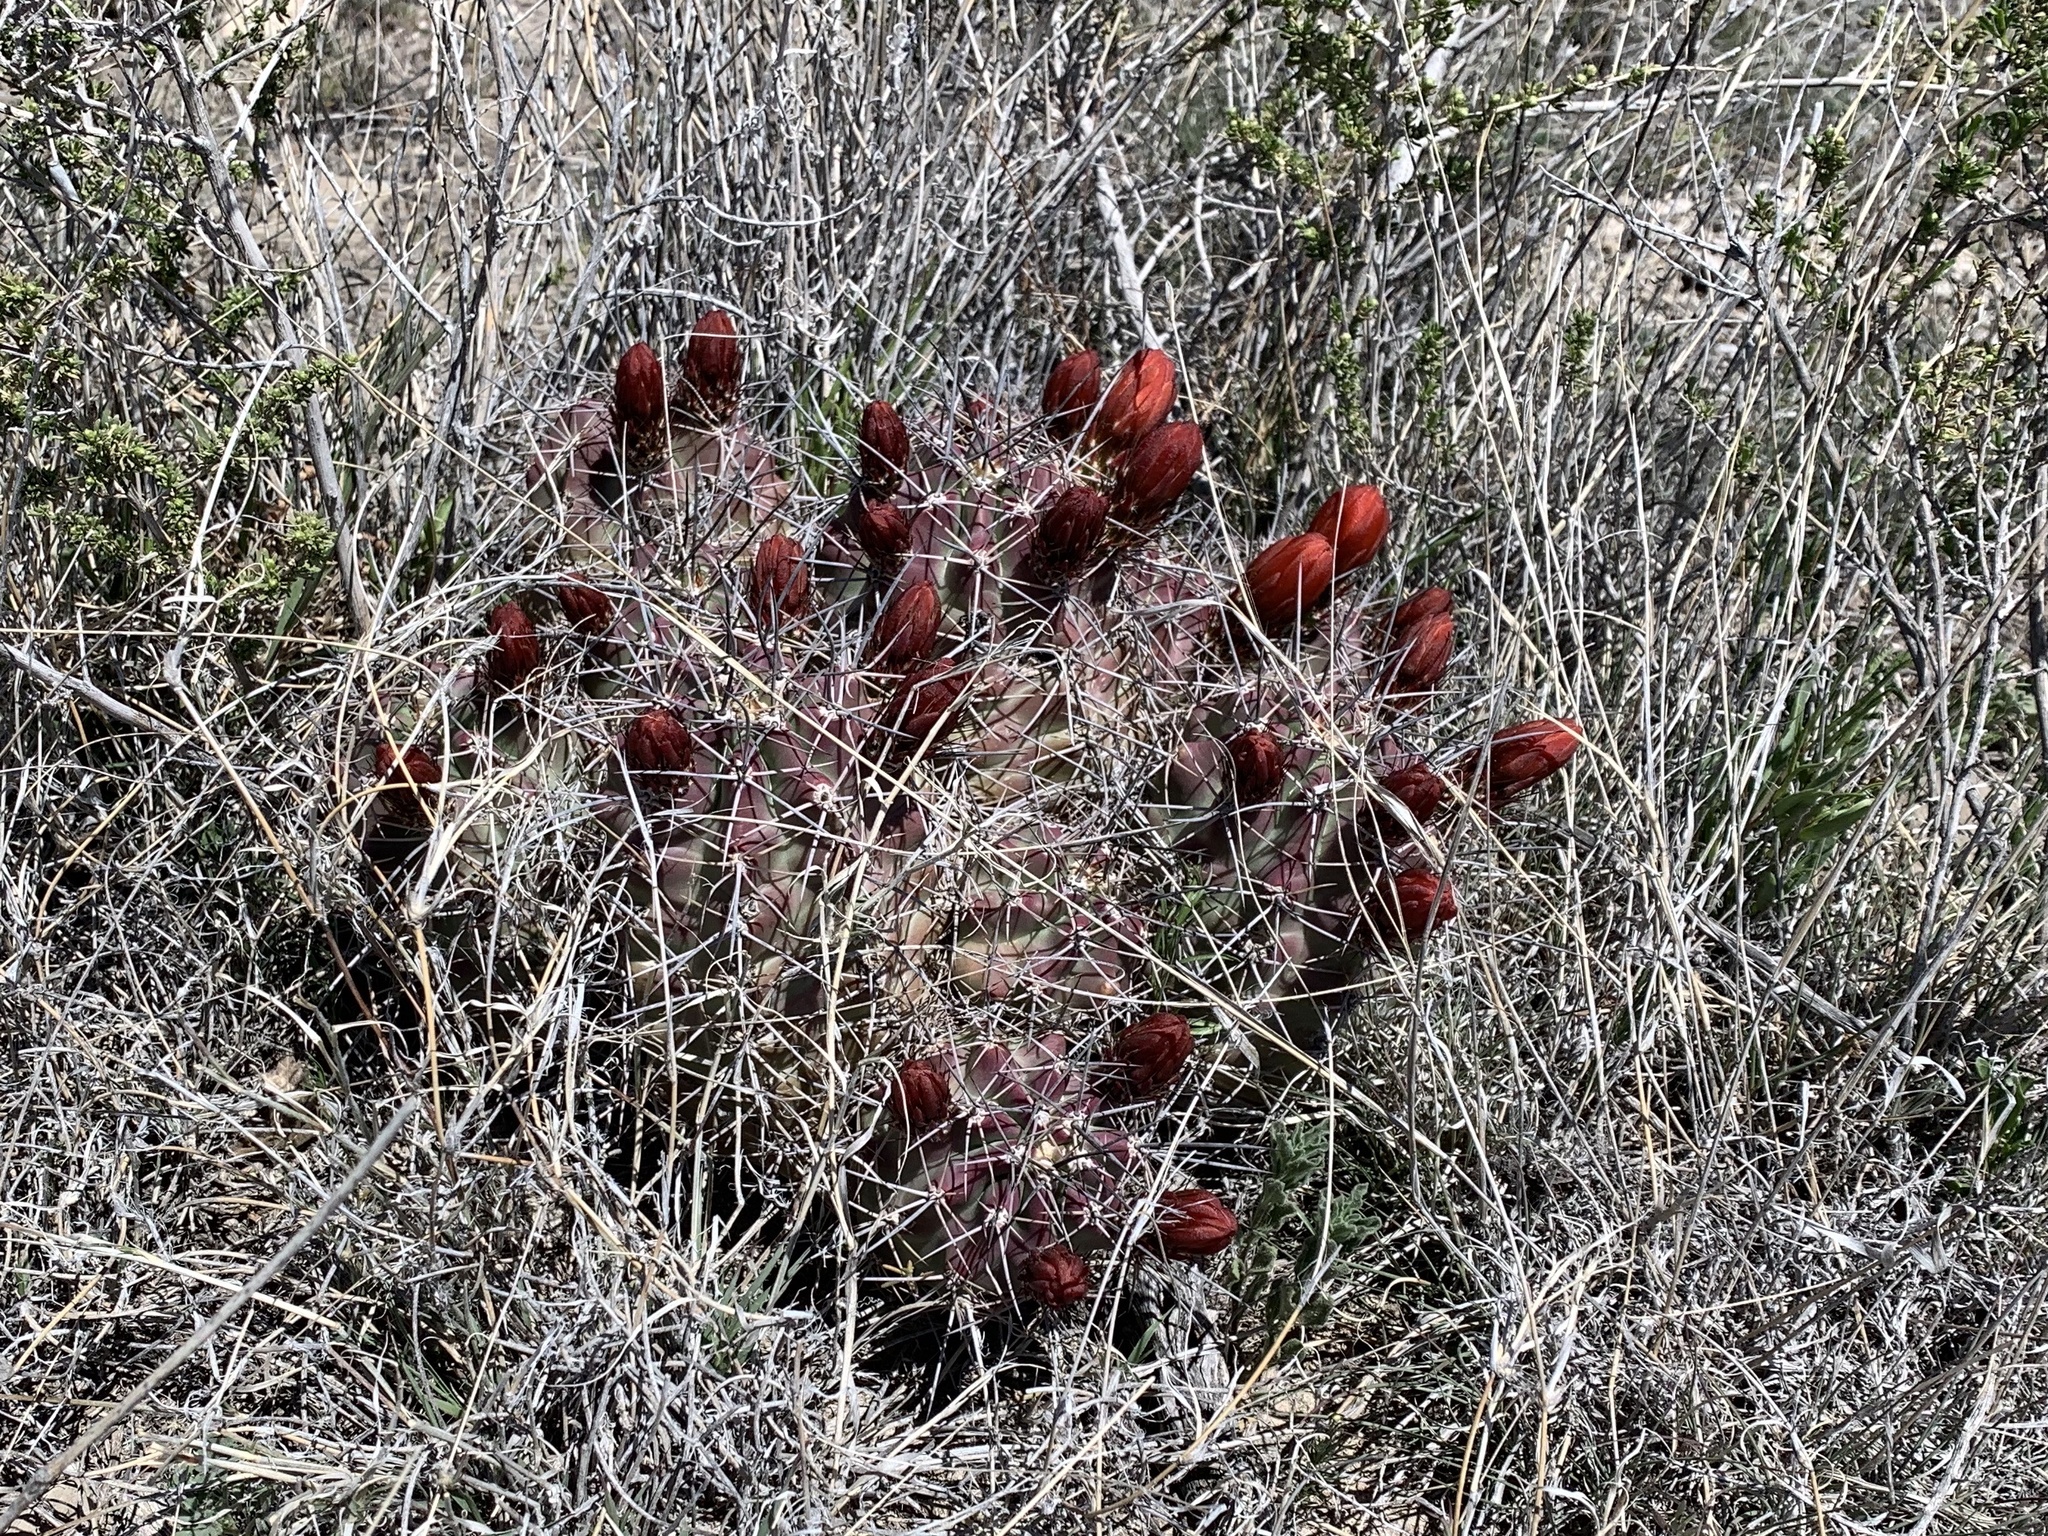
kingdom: Plantae
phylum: Tracheophyta
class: Magnoliopsida
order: Caryophyllales
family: Cactaceae
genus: Echinocereus
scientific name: Echinocereus coccineus
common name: Scarlet hedgehog cactus
